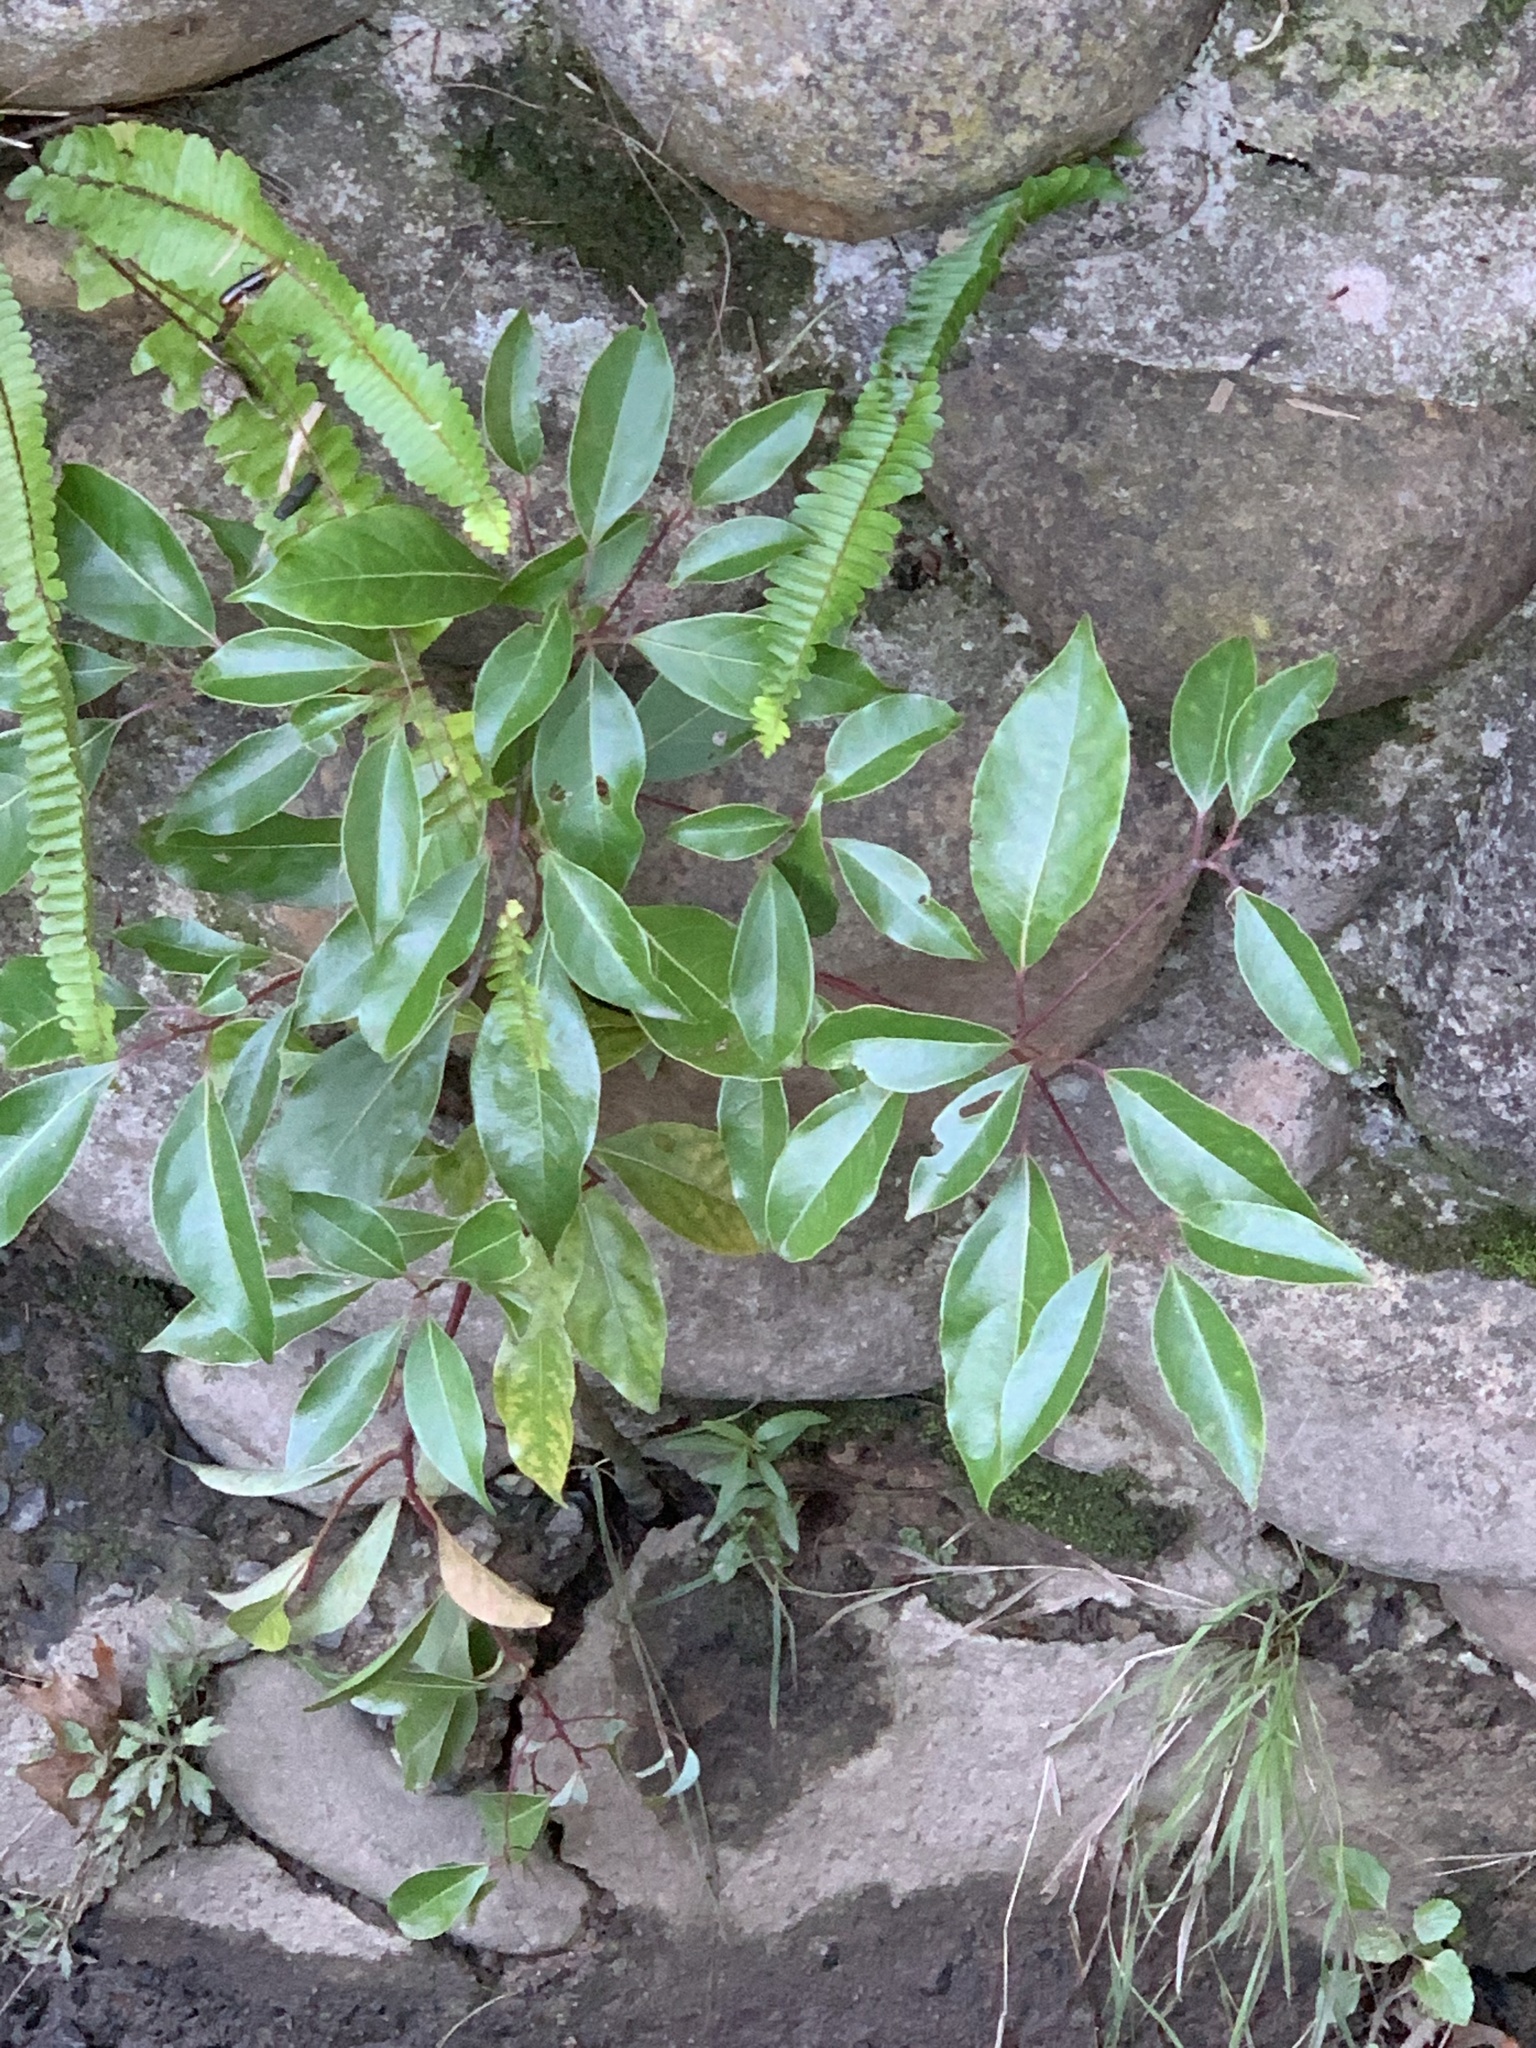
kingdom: Plantae
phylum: Tracheophyta
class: Magnoliopsida
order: Laurales
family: Lauraceae
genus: Cinnamomum
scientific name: Cinnamomum camphora
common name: Camphortree
